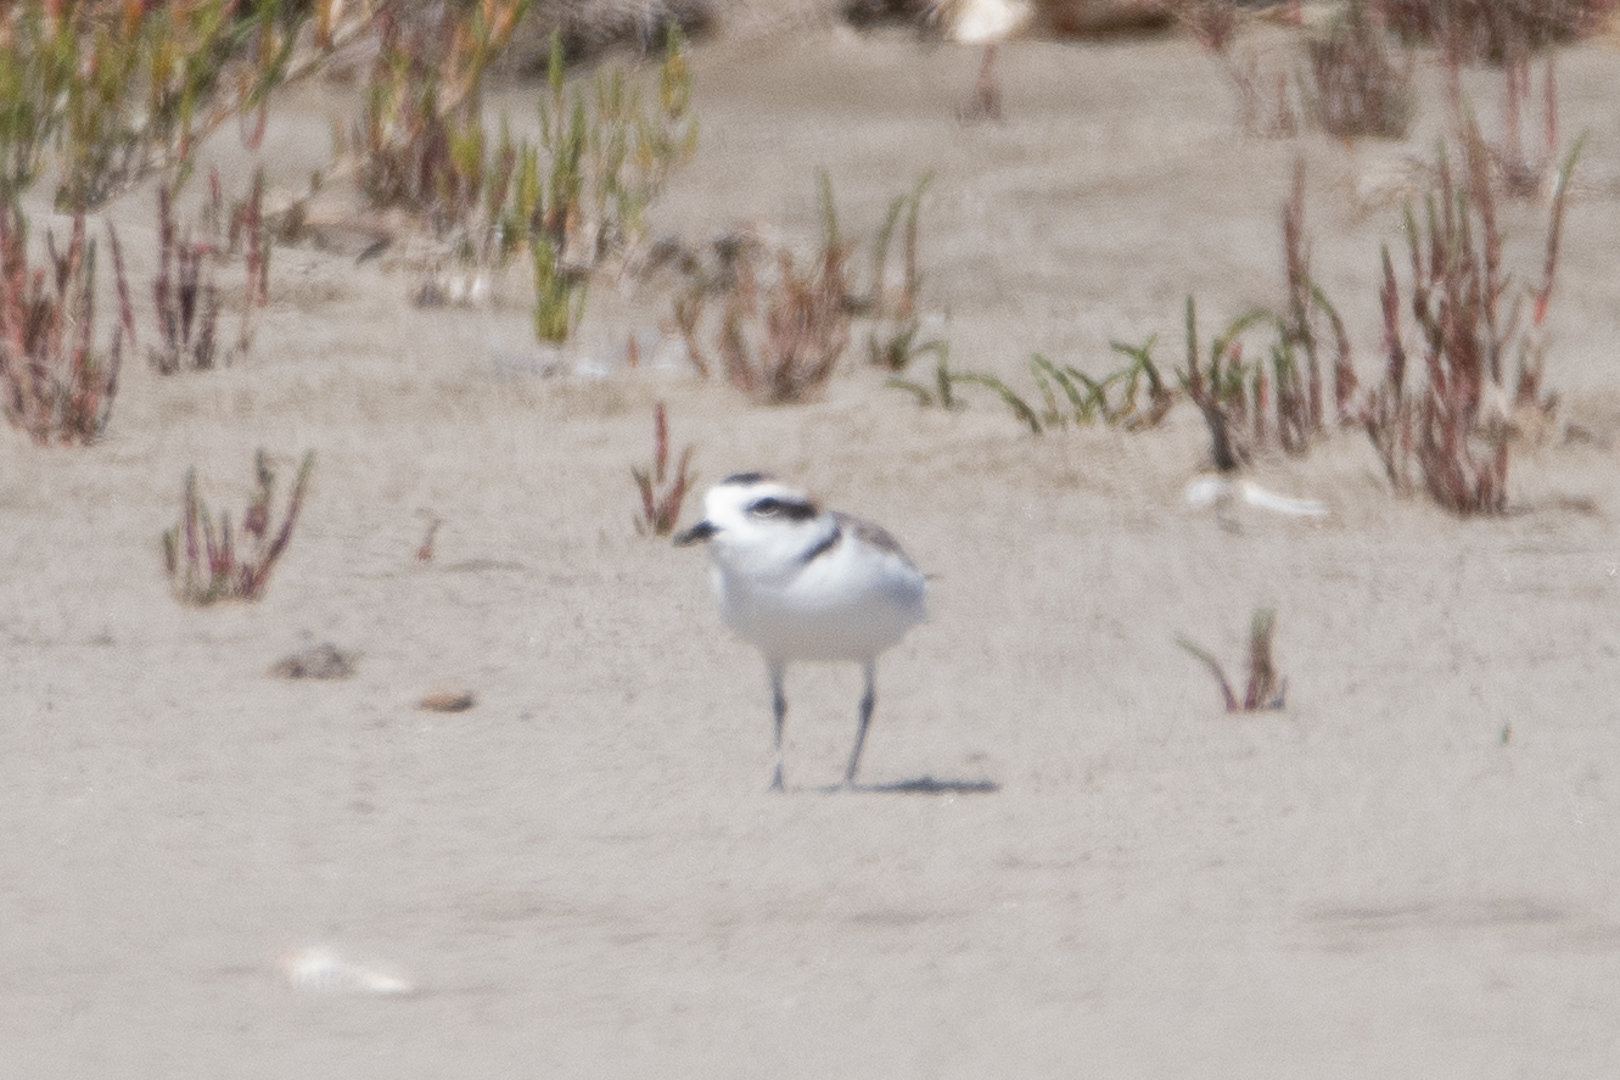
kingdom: Animalia
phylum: Chordata
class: Aves
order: Charadriiformes
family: Charadriidae
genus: Anarhynchus
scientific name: Anarhynchus
